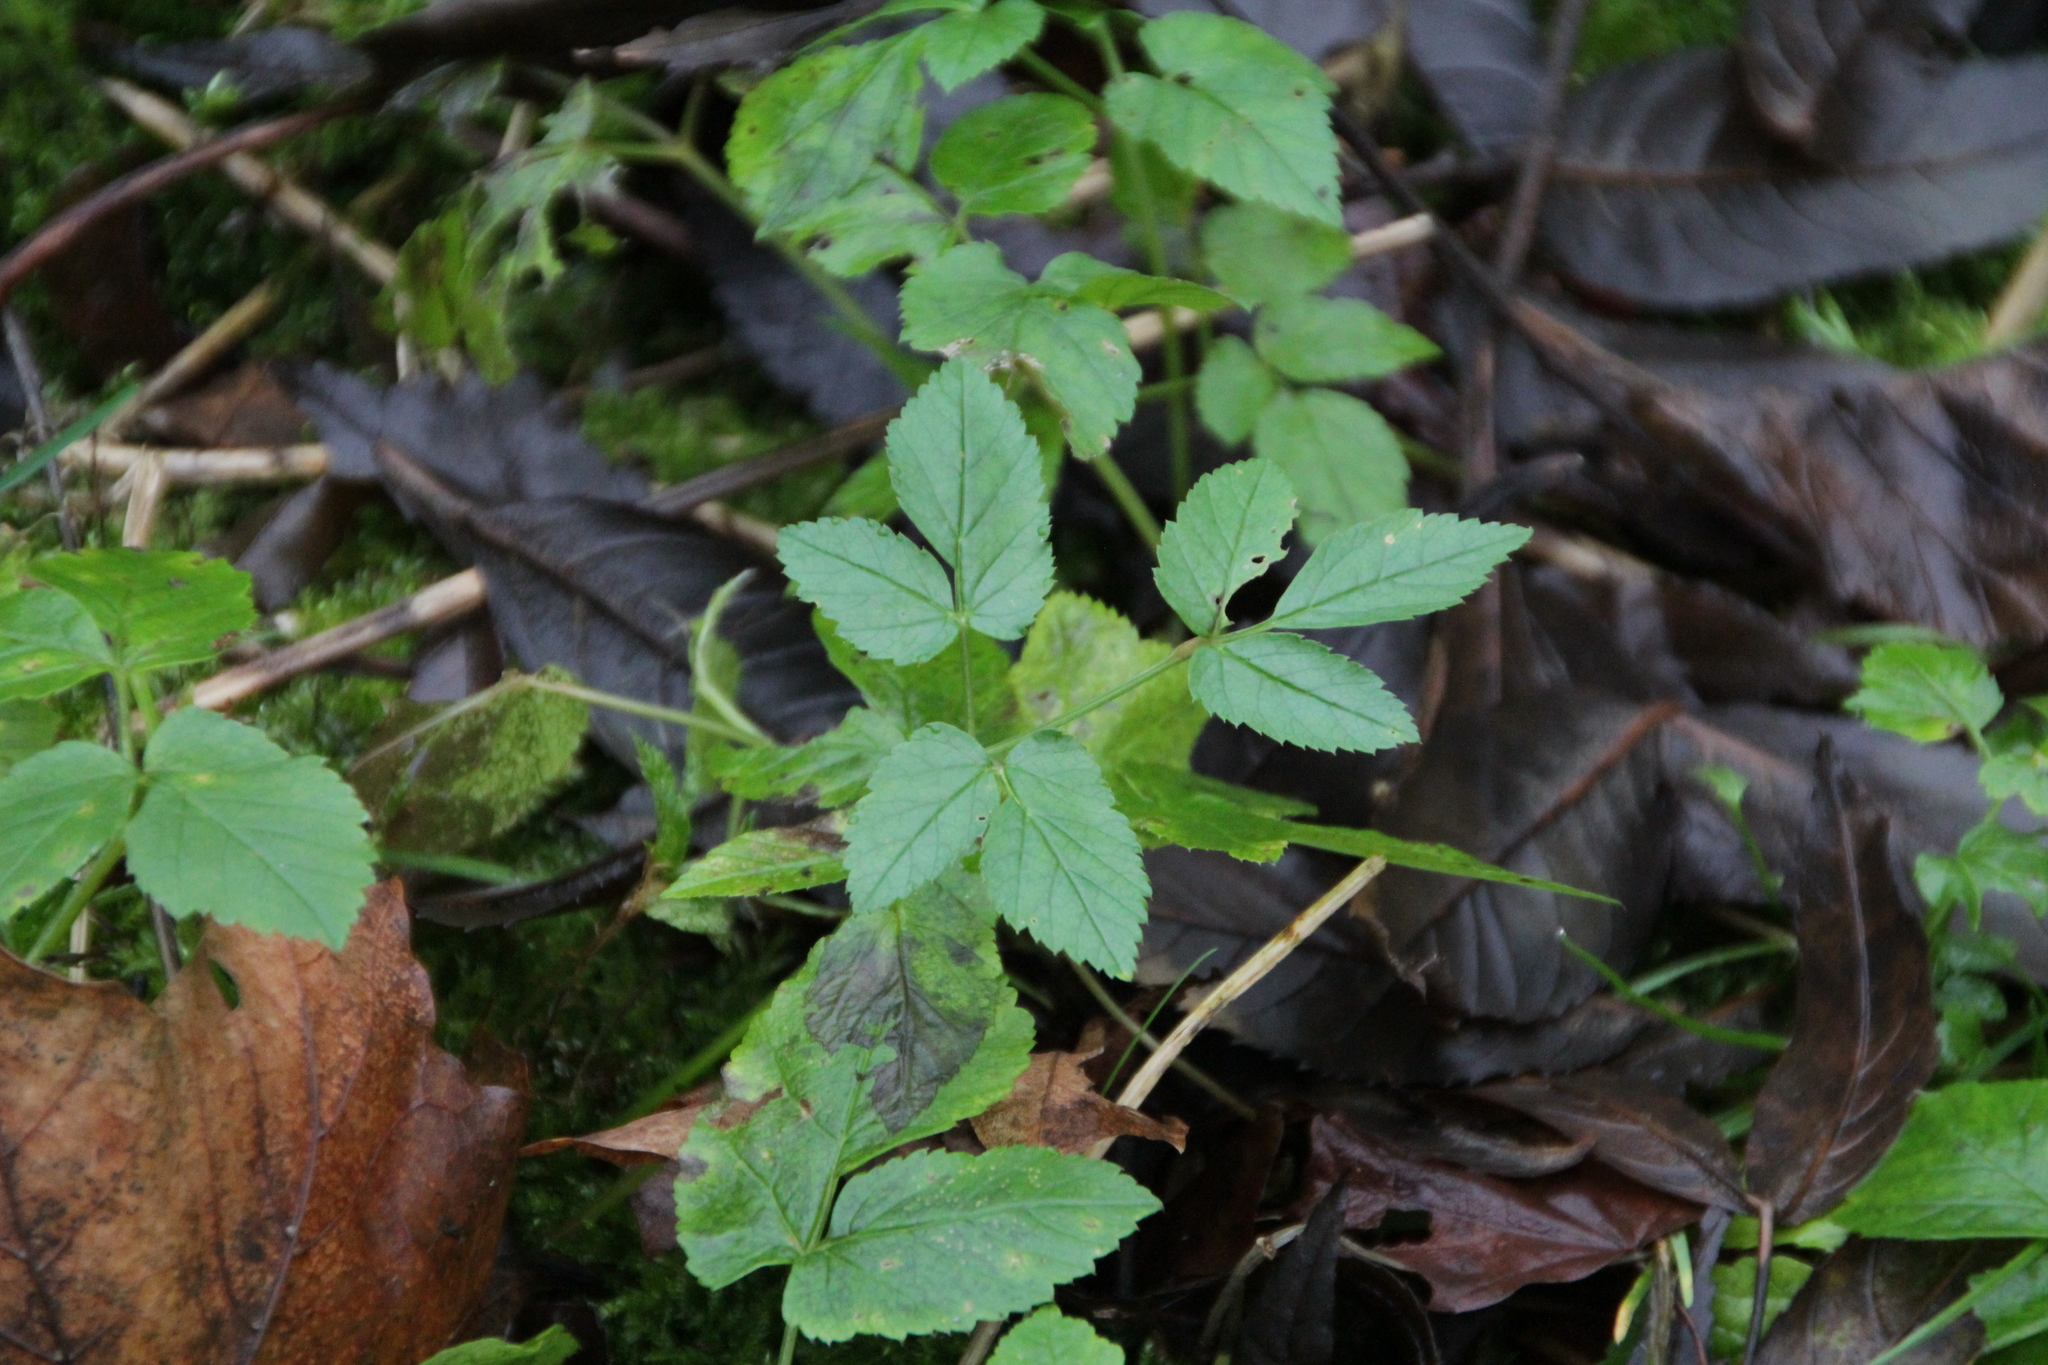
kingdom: Plantae
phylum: Tracheophyta
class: Magnoliopsida
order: Apiales
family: Apiaceae
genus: Aegopodium
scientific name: Aegopodium podagraria
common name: Ground-elder
